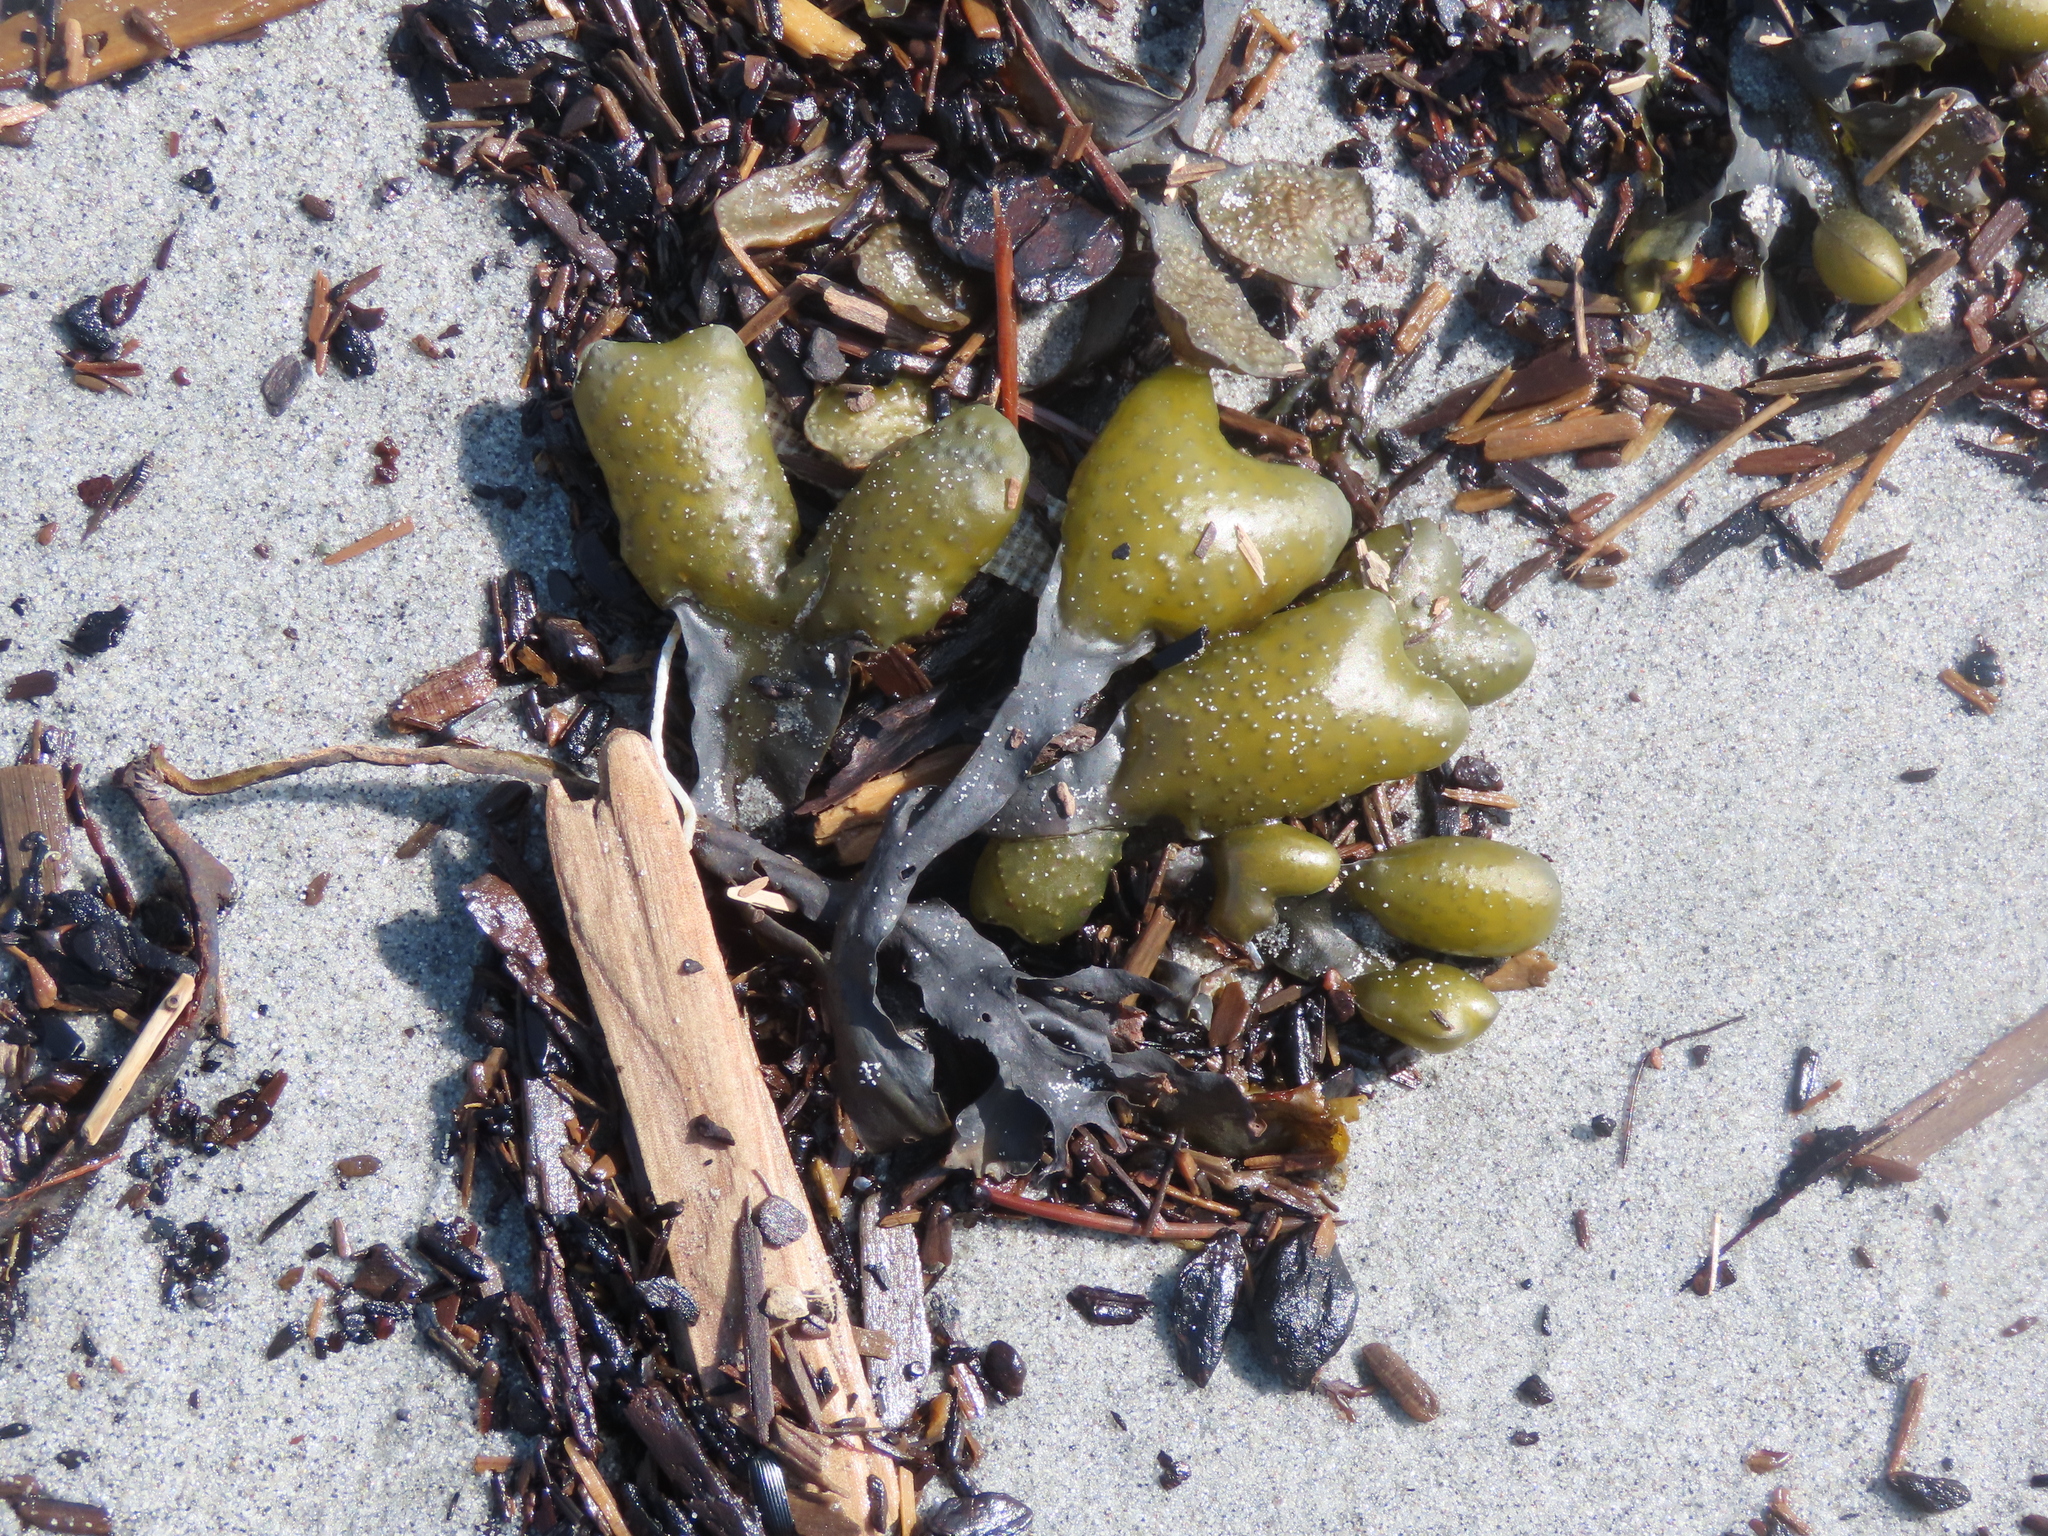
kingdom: Chromista
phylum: Ochrophyta
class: Phaeophyceae
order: Fucales
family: Fucaceae
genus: Fucus
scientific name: Fucus distichus
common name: Rockweed
